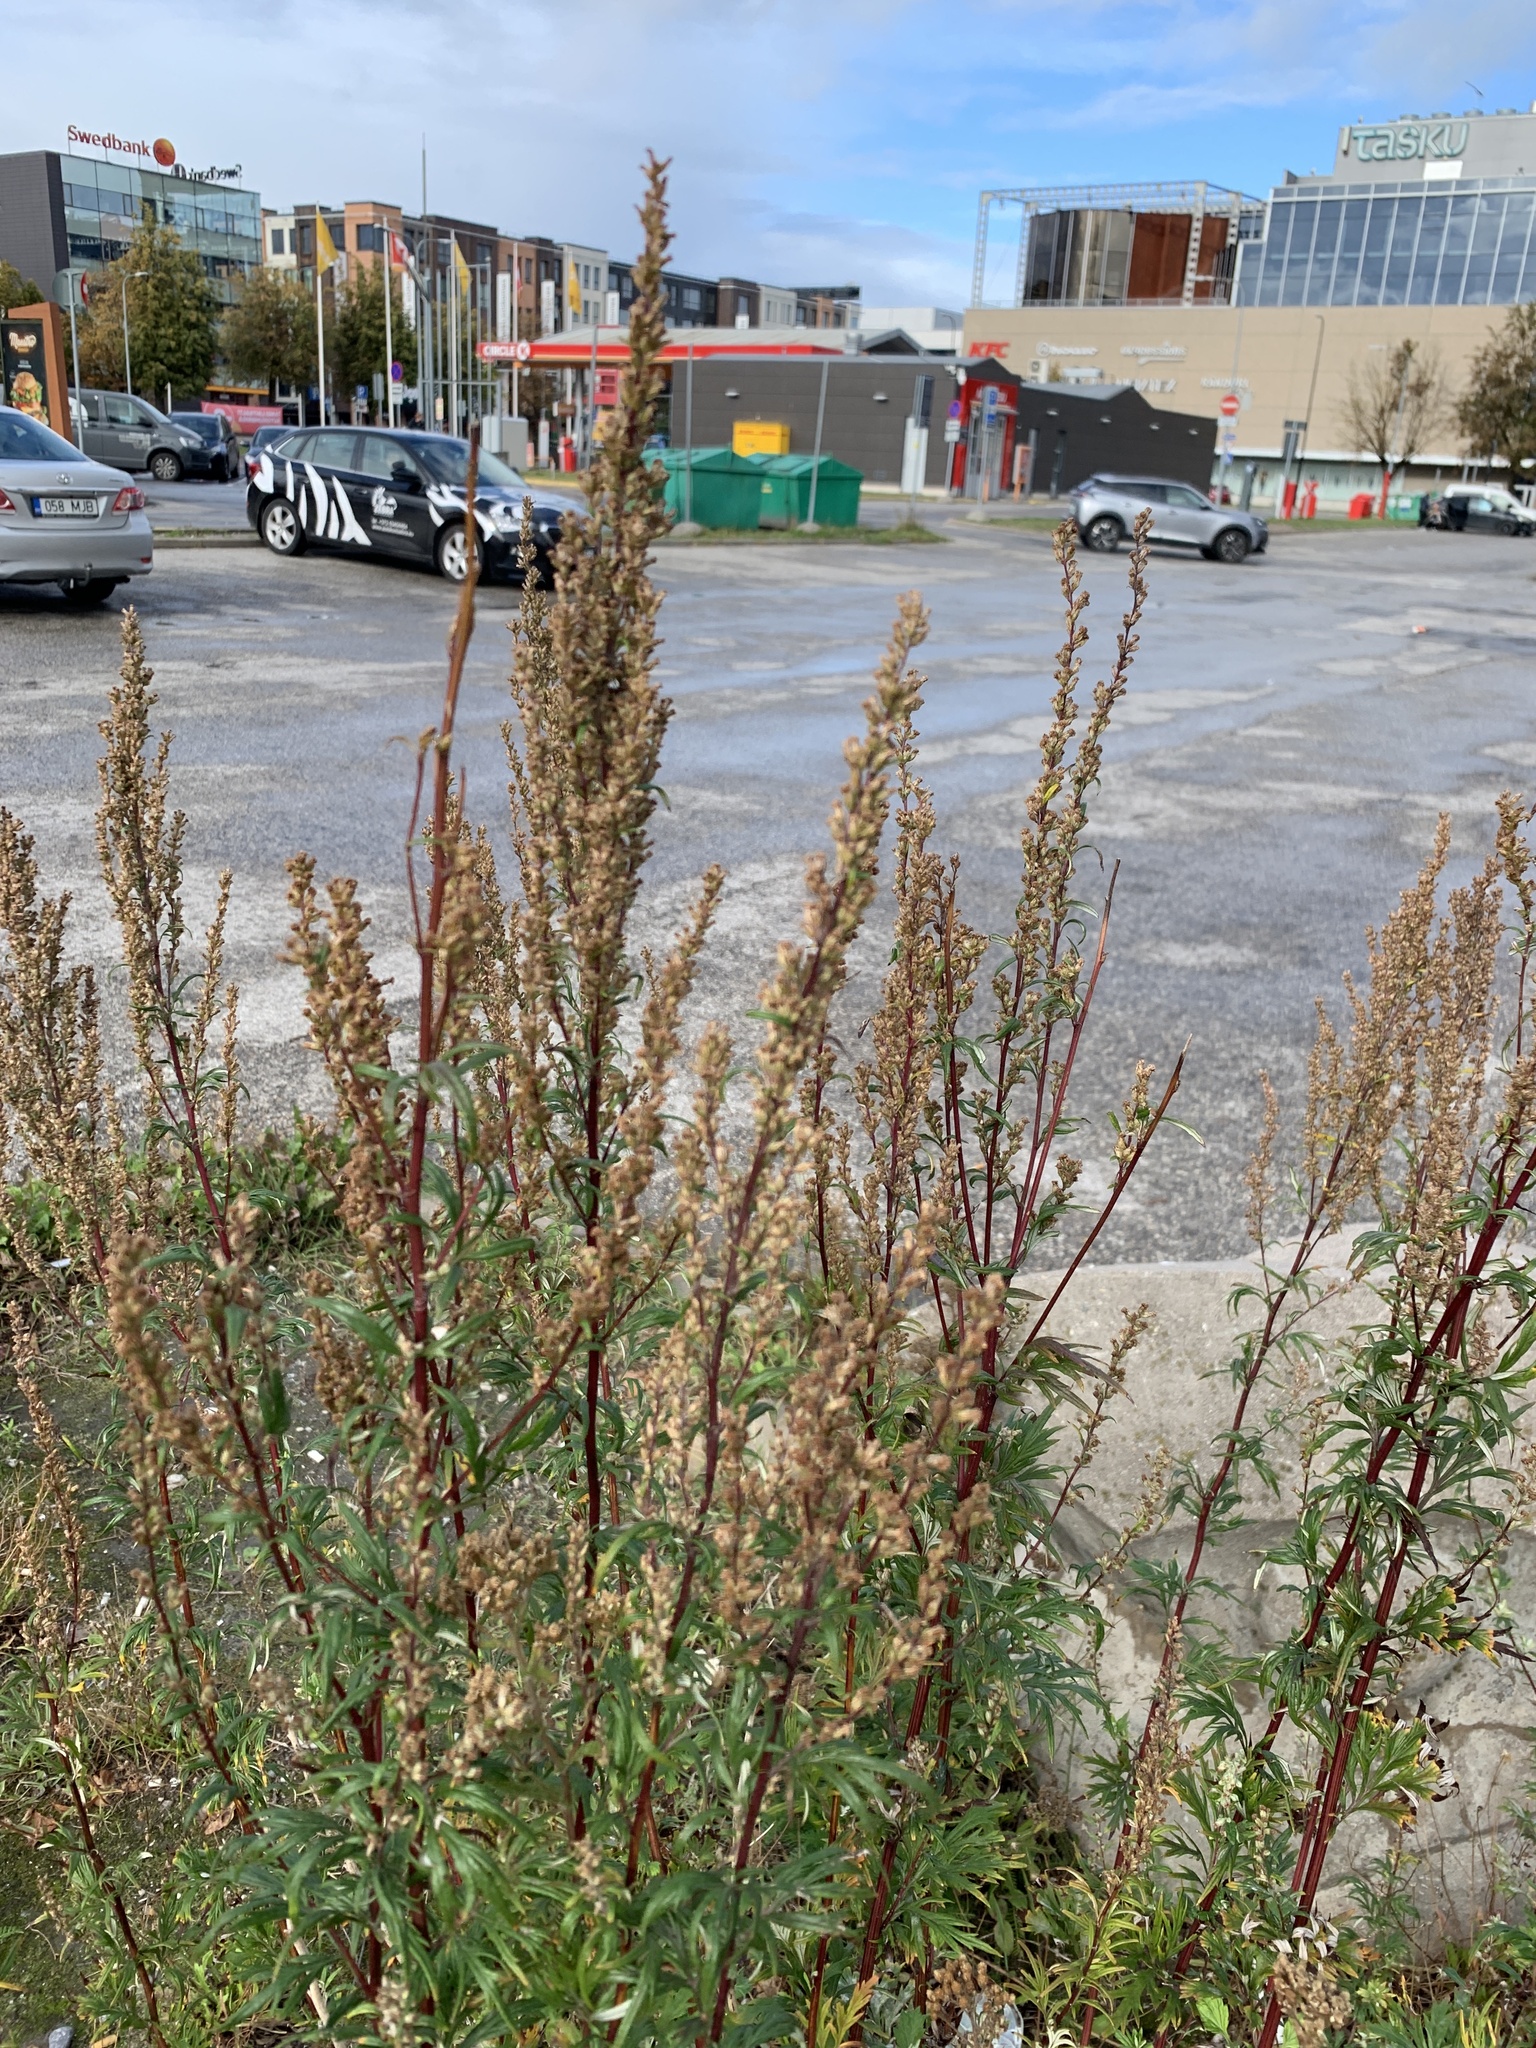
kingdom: Plantae
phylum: Tracheophyta
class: Magnoliopsida
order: Asterales
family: Asteraceae
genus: Artemisia
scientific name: Artemisia vulgaris
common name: Mugwort
